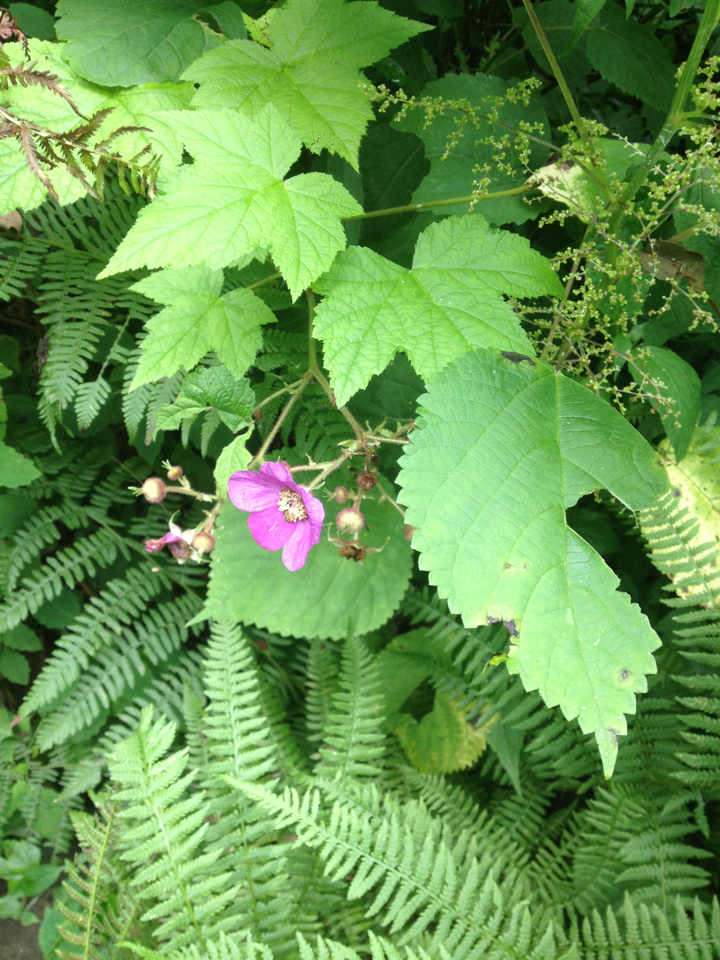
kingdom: Plantae
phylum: Tracheophyta
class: Magnoliopsida
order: Rosales
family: Rosaceae
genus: Rubus
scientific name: Rubus odoratus
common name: Purple-flowered raspberry
